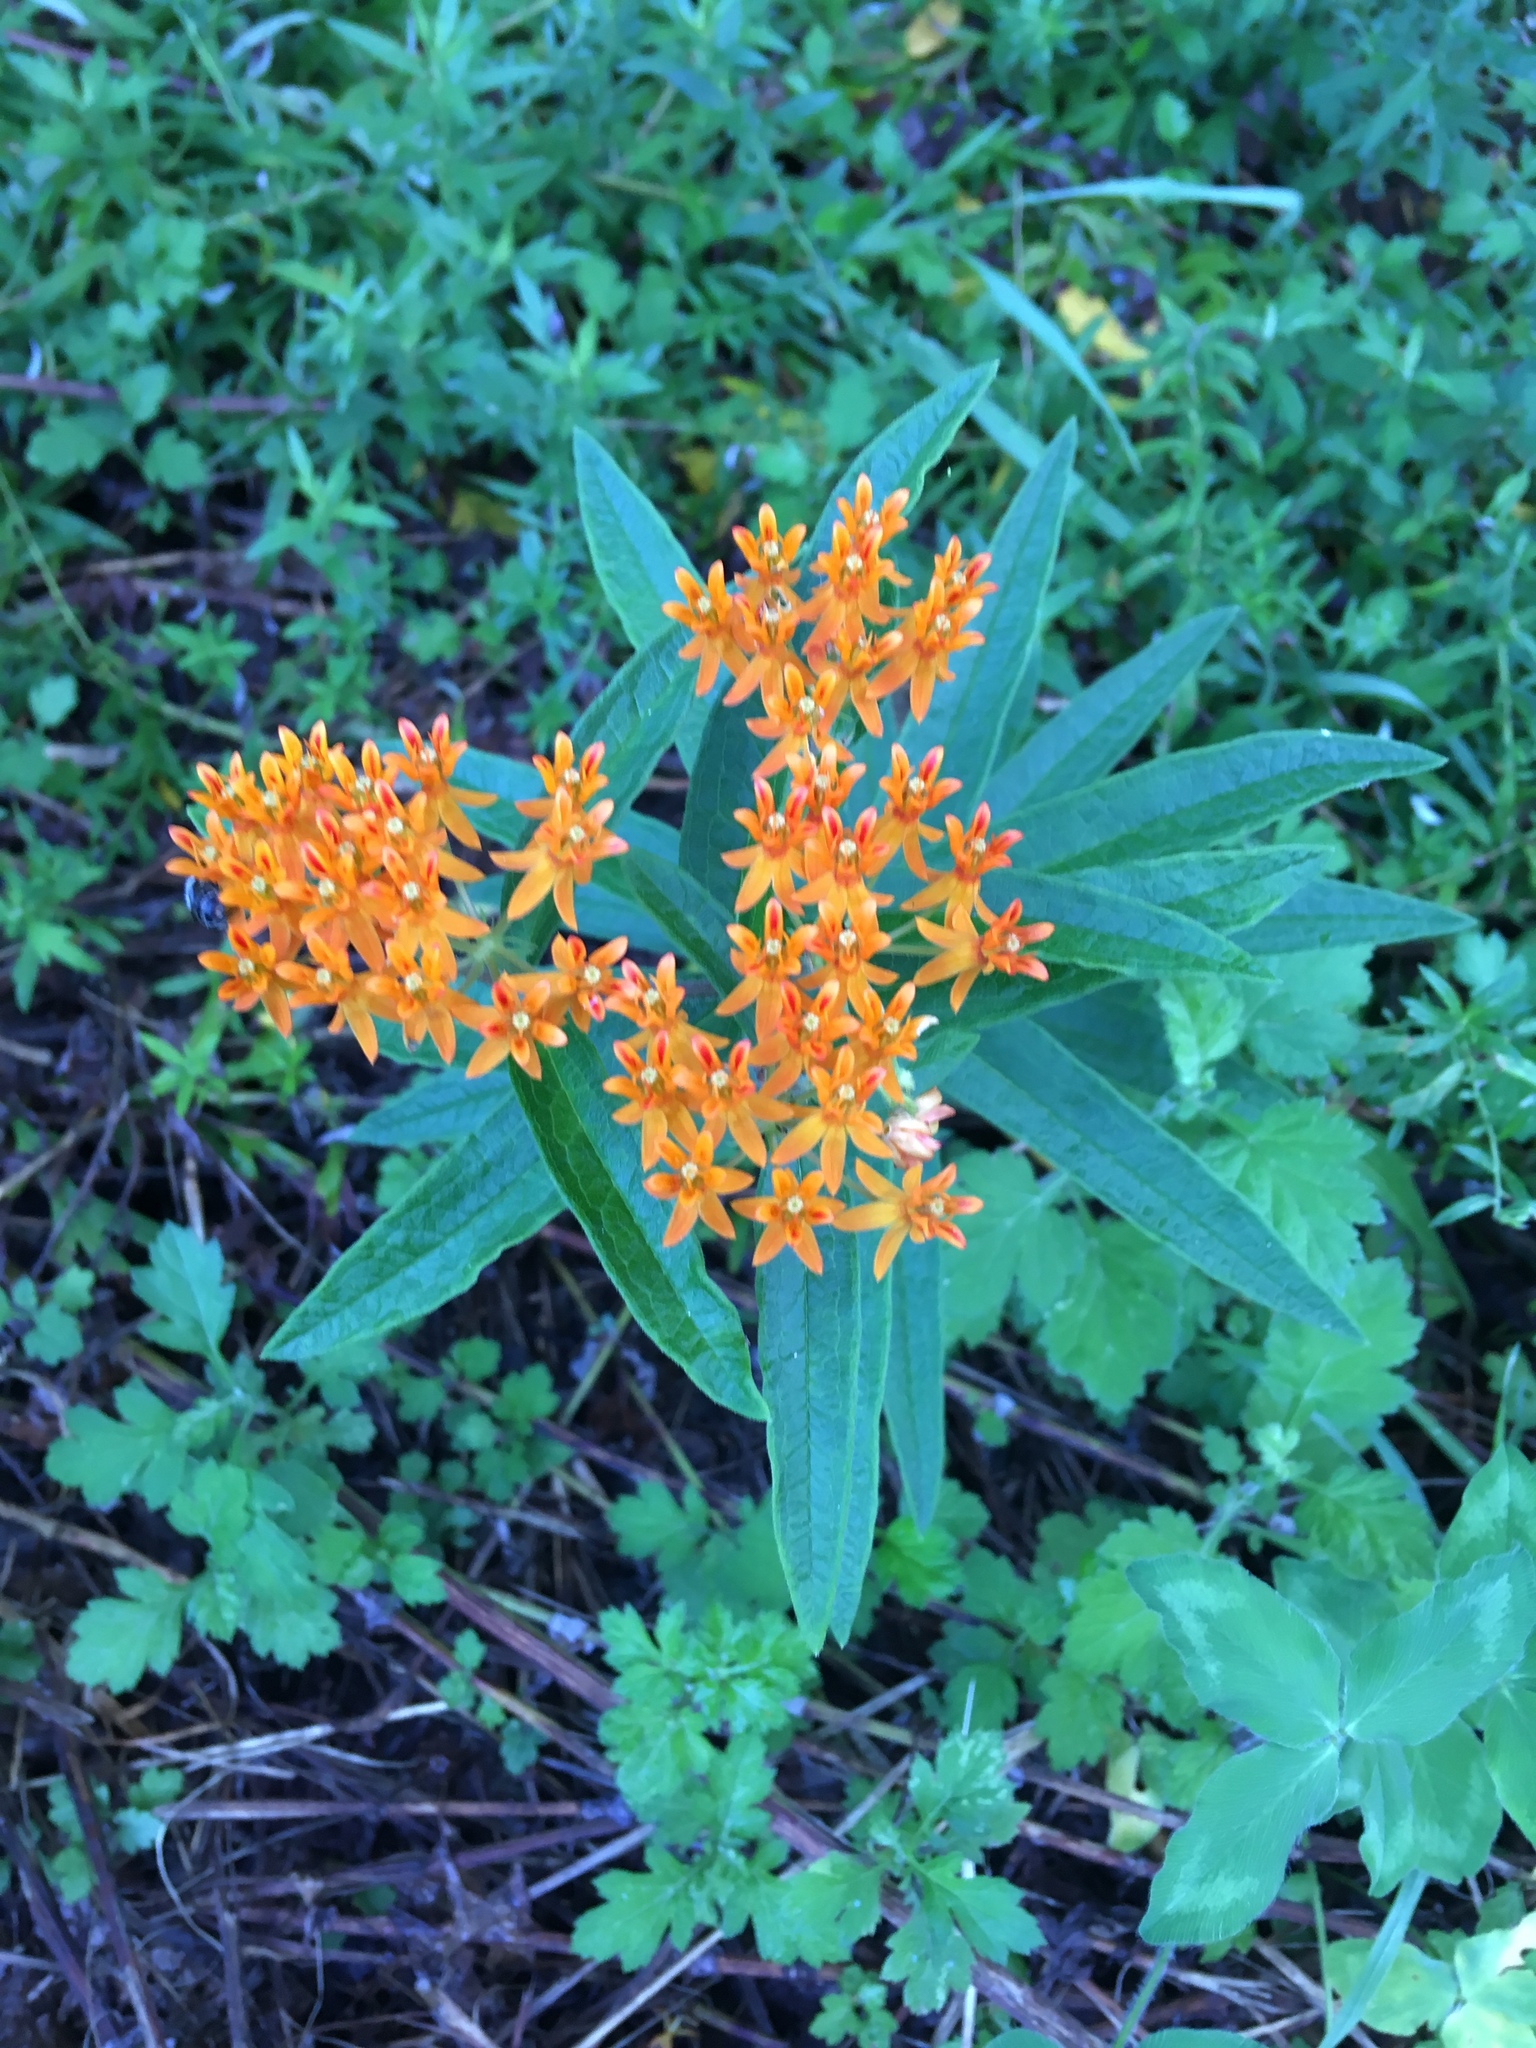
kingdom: Plantae
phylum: Tracheophyta
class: Magnoliopsida
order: Gentianales
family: Apocynaceae
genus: Asclepias
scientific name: Asclepias tuberosa
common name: Butterfly milkweed
